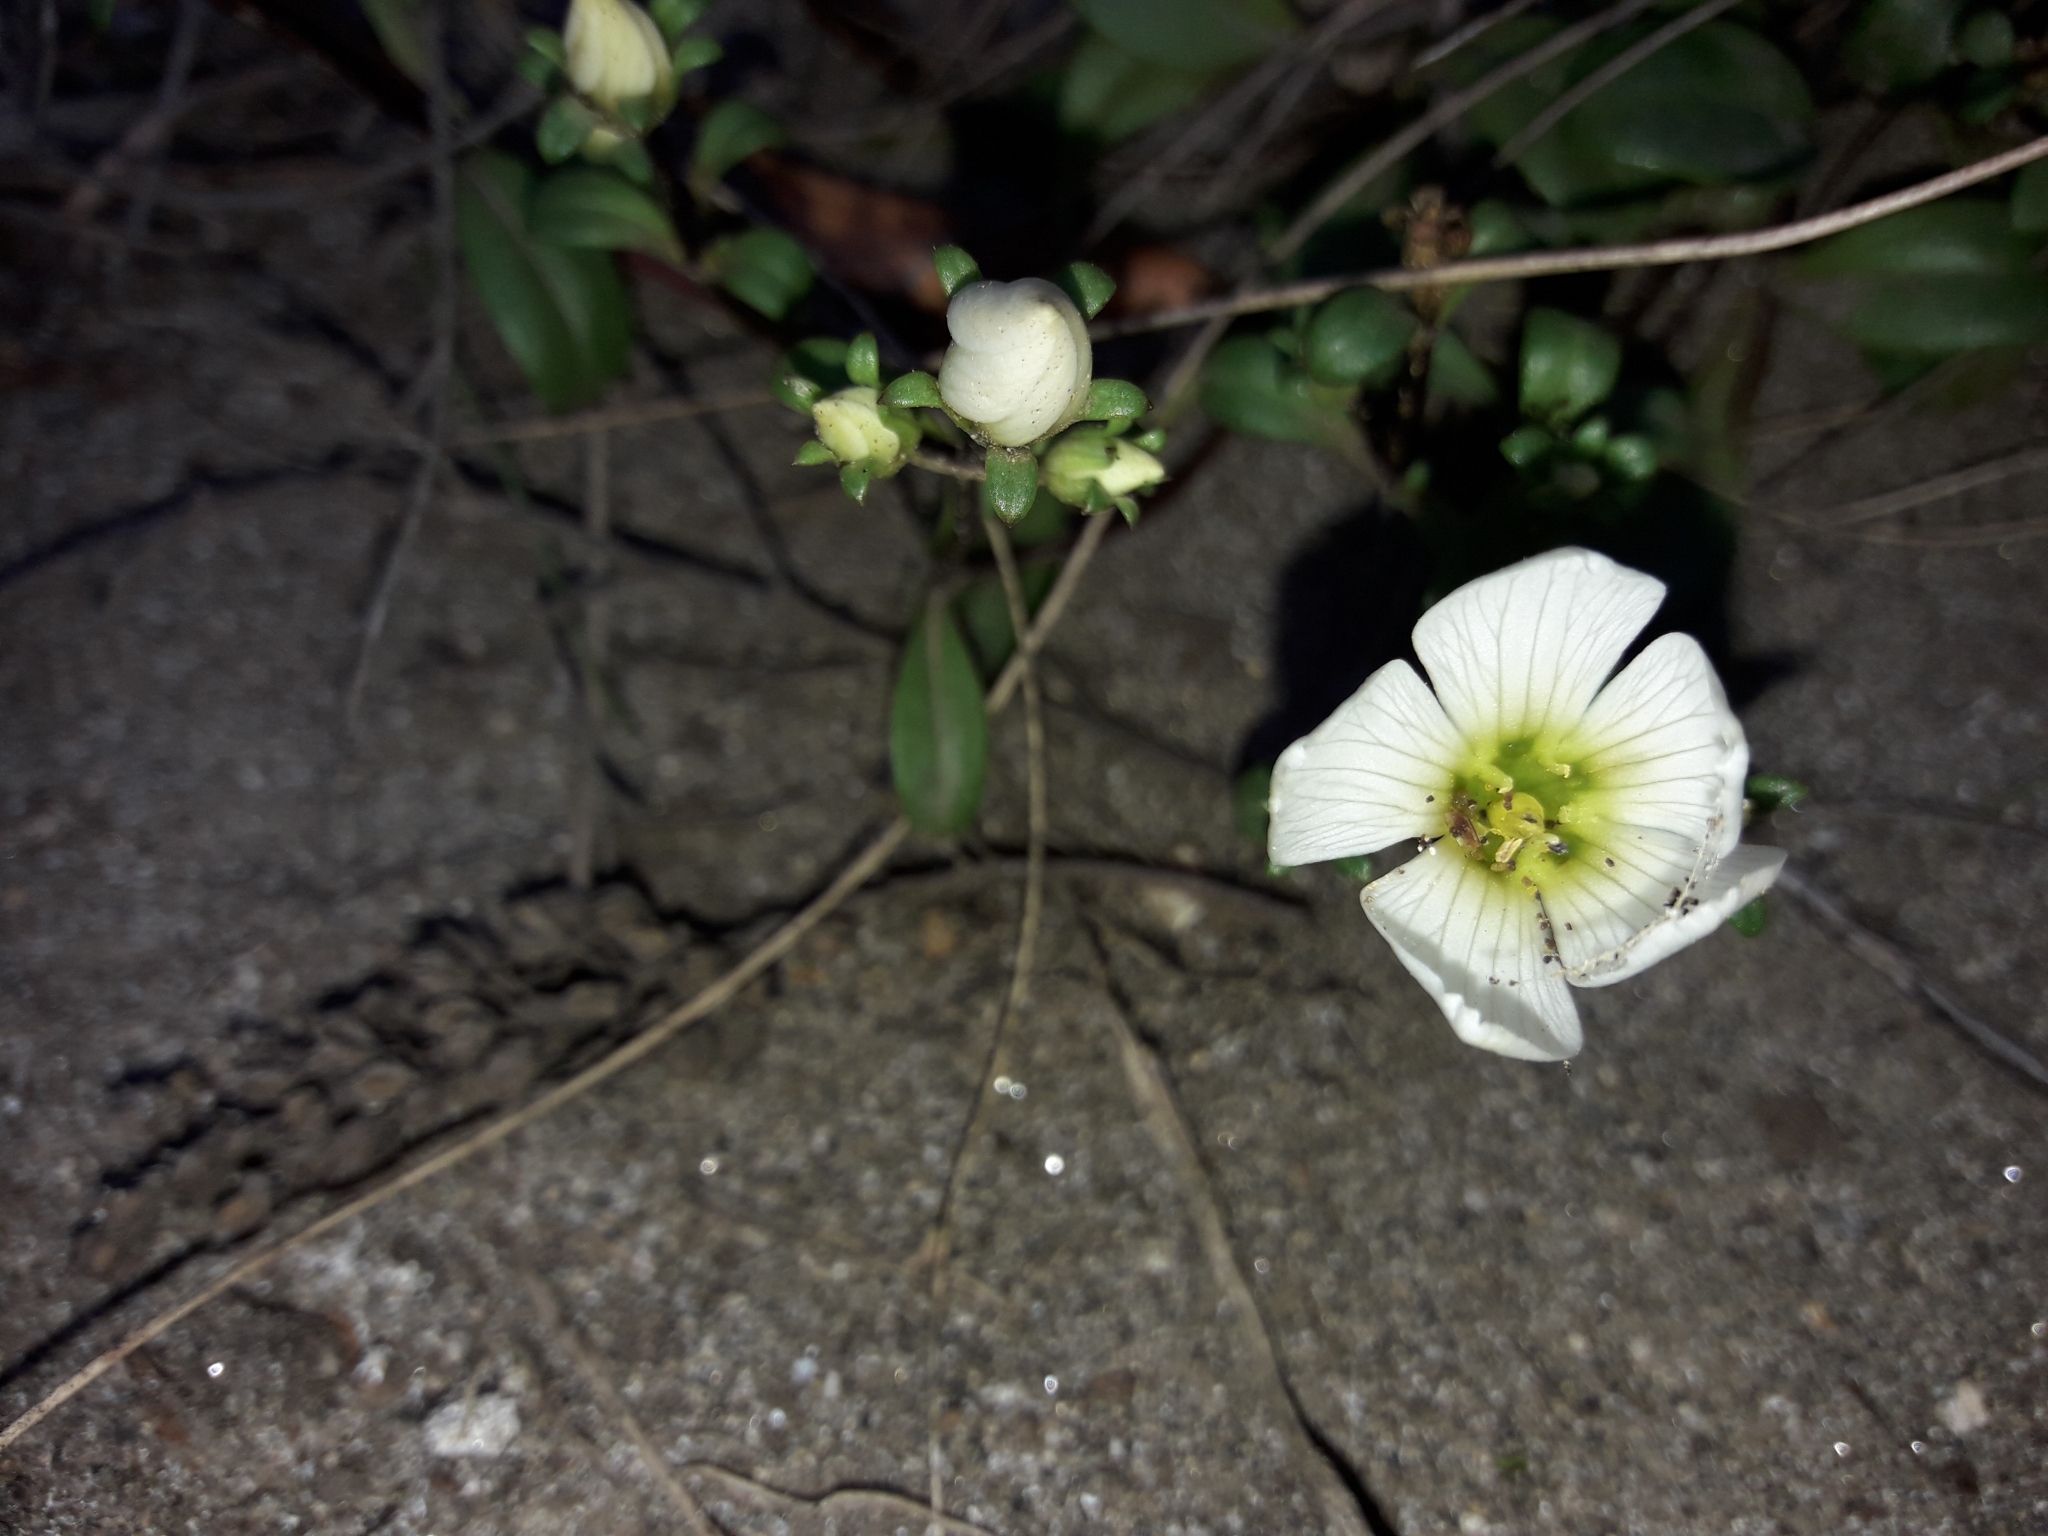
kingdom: Plantae
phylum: Tracheophyta
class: Magnoliopsida
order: Gentianales
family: Gentianaceae
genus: Gentianella
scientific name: Gentianella saxosa
